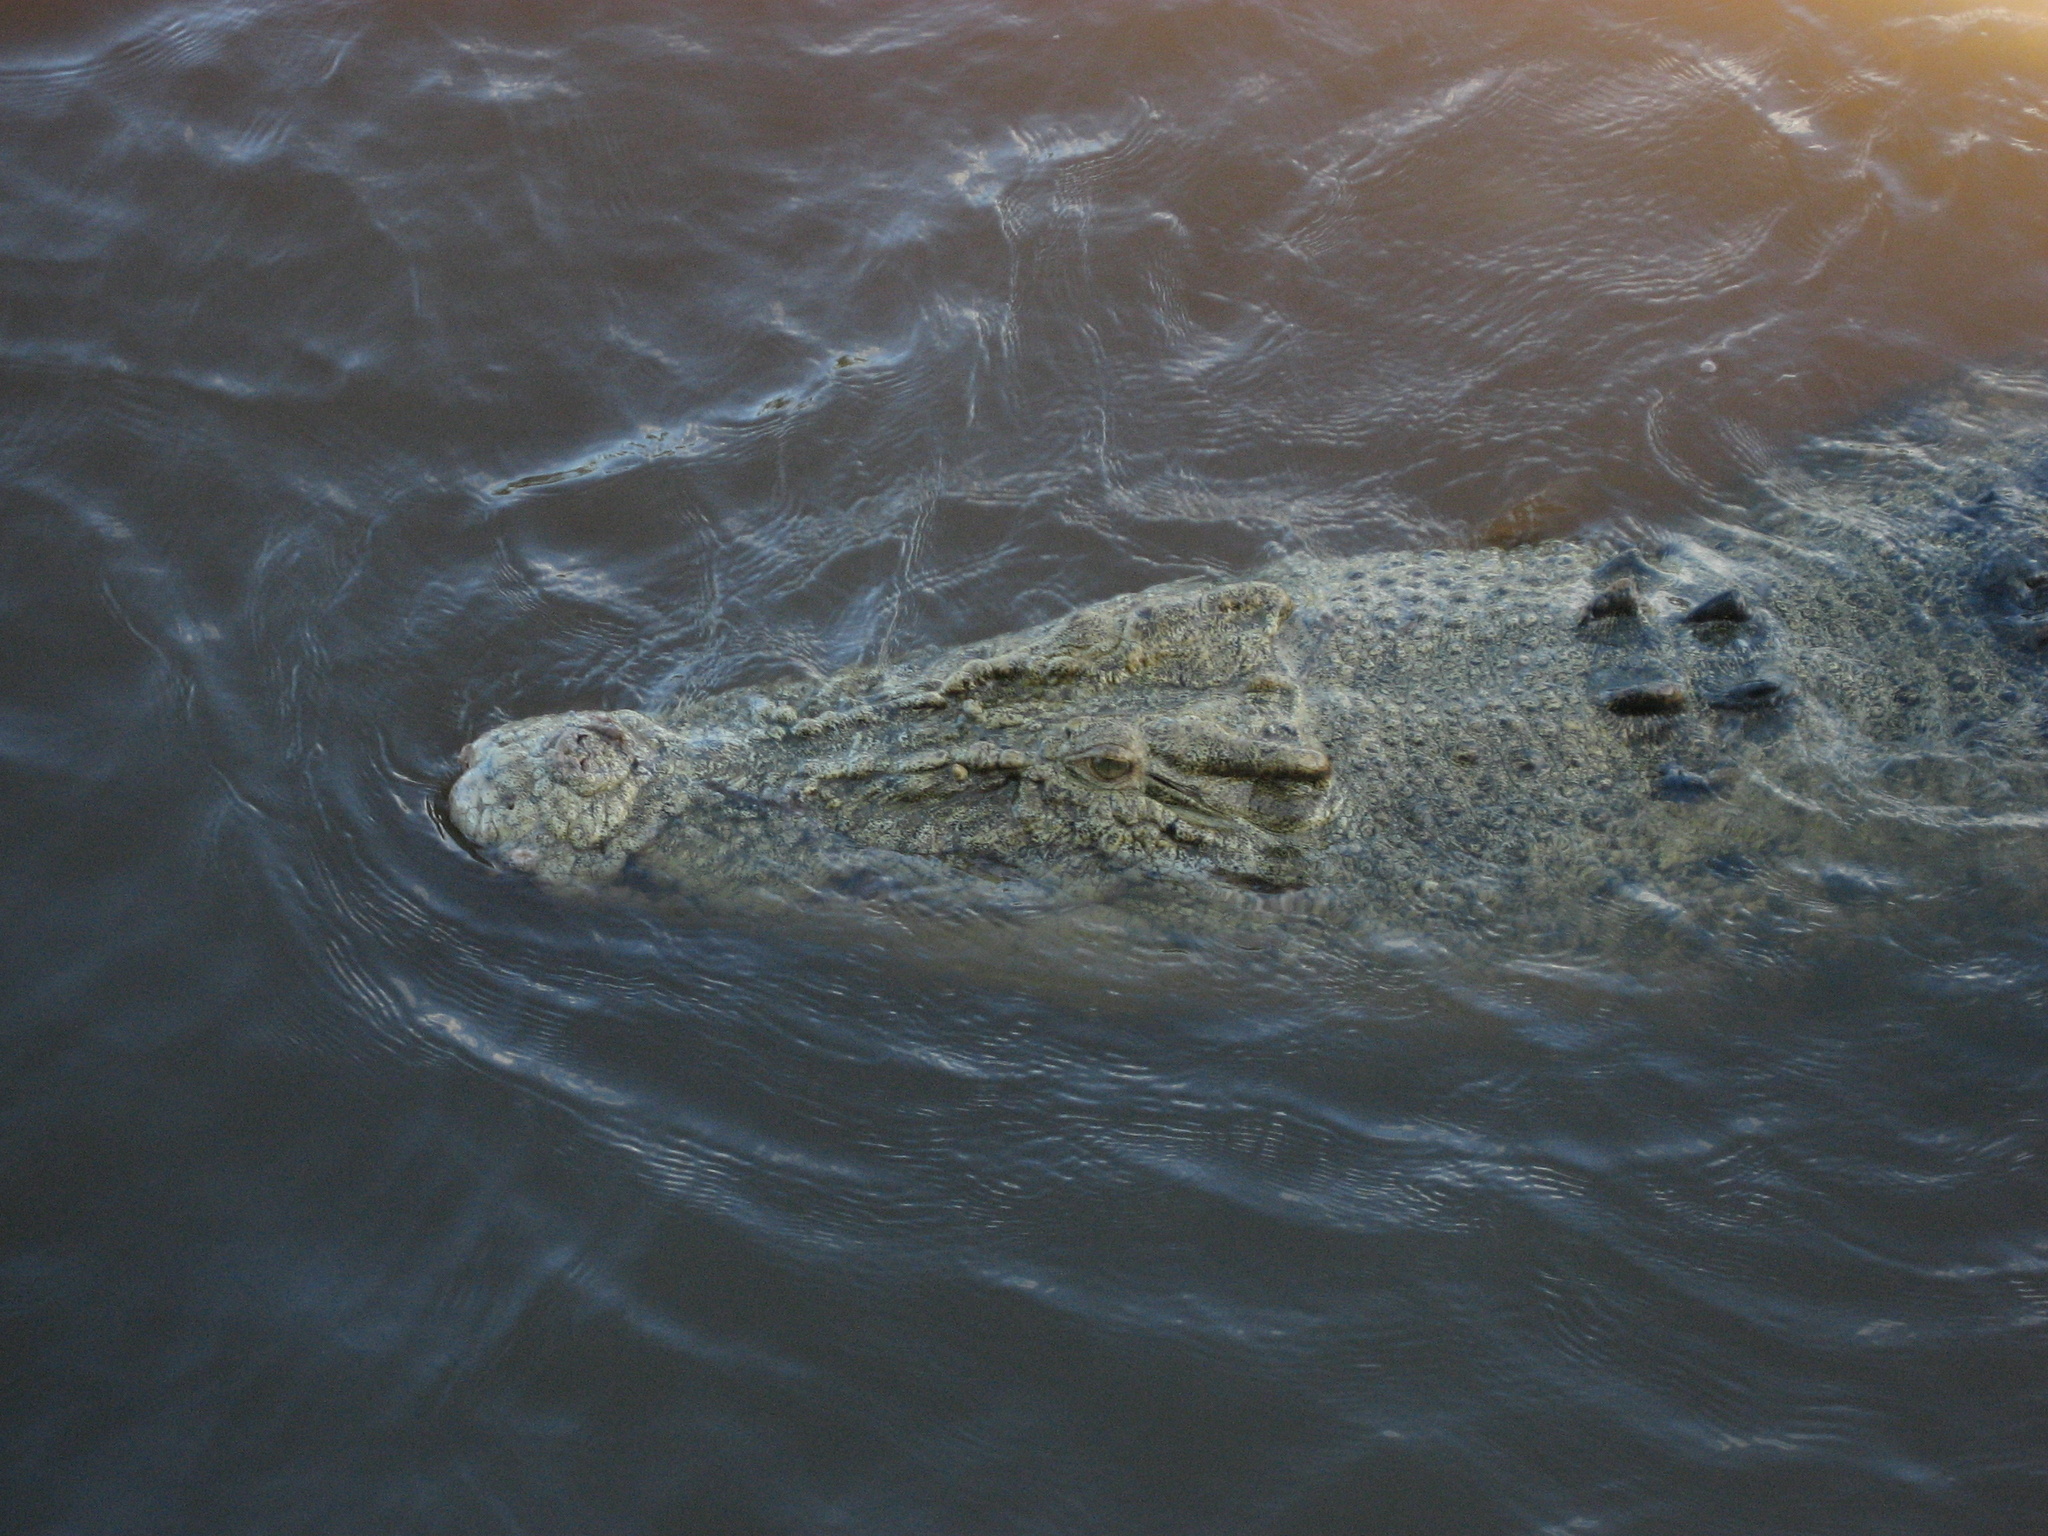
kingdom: Animalia
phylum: Chordata
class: Crocodylia
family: Crocodylidae
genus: Crocodylus
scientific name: Crocodylus porosus
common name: Saltwater crocodile
